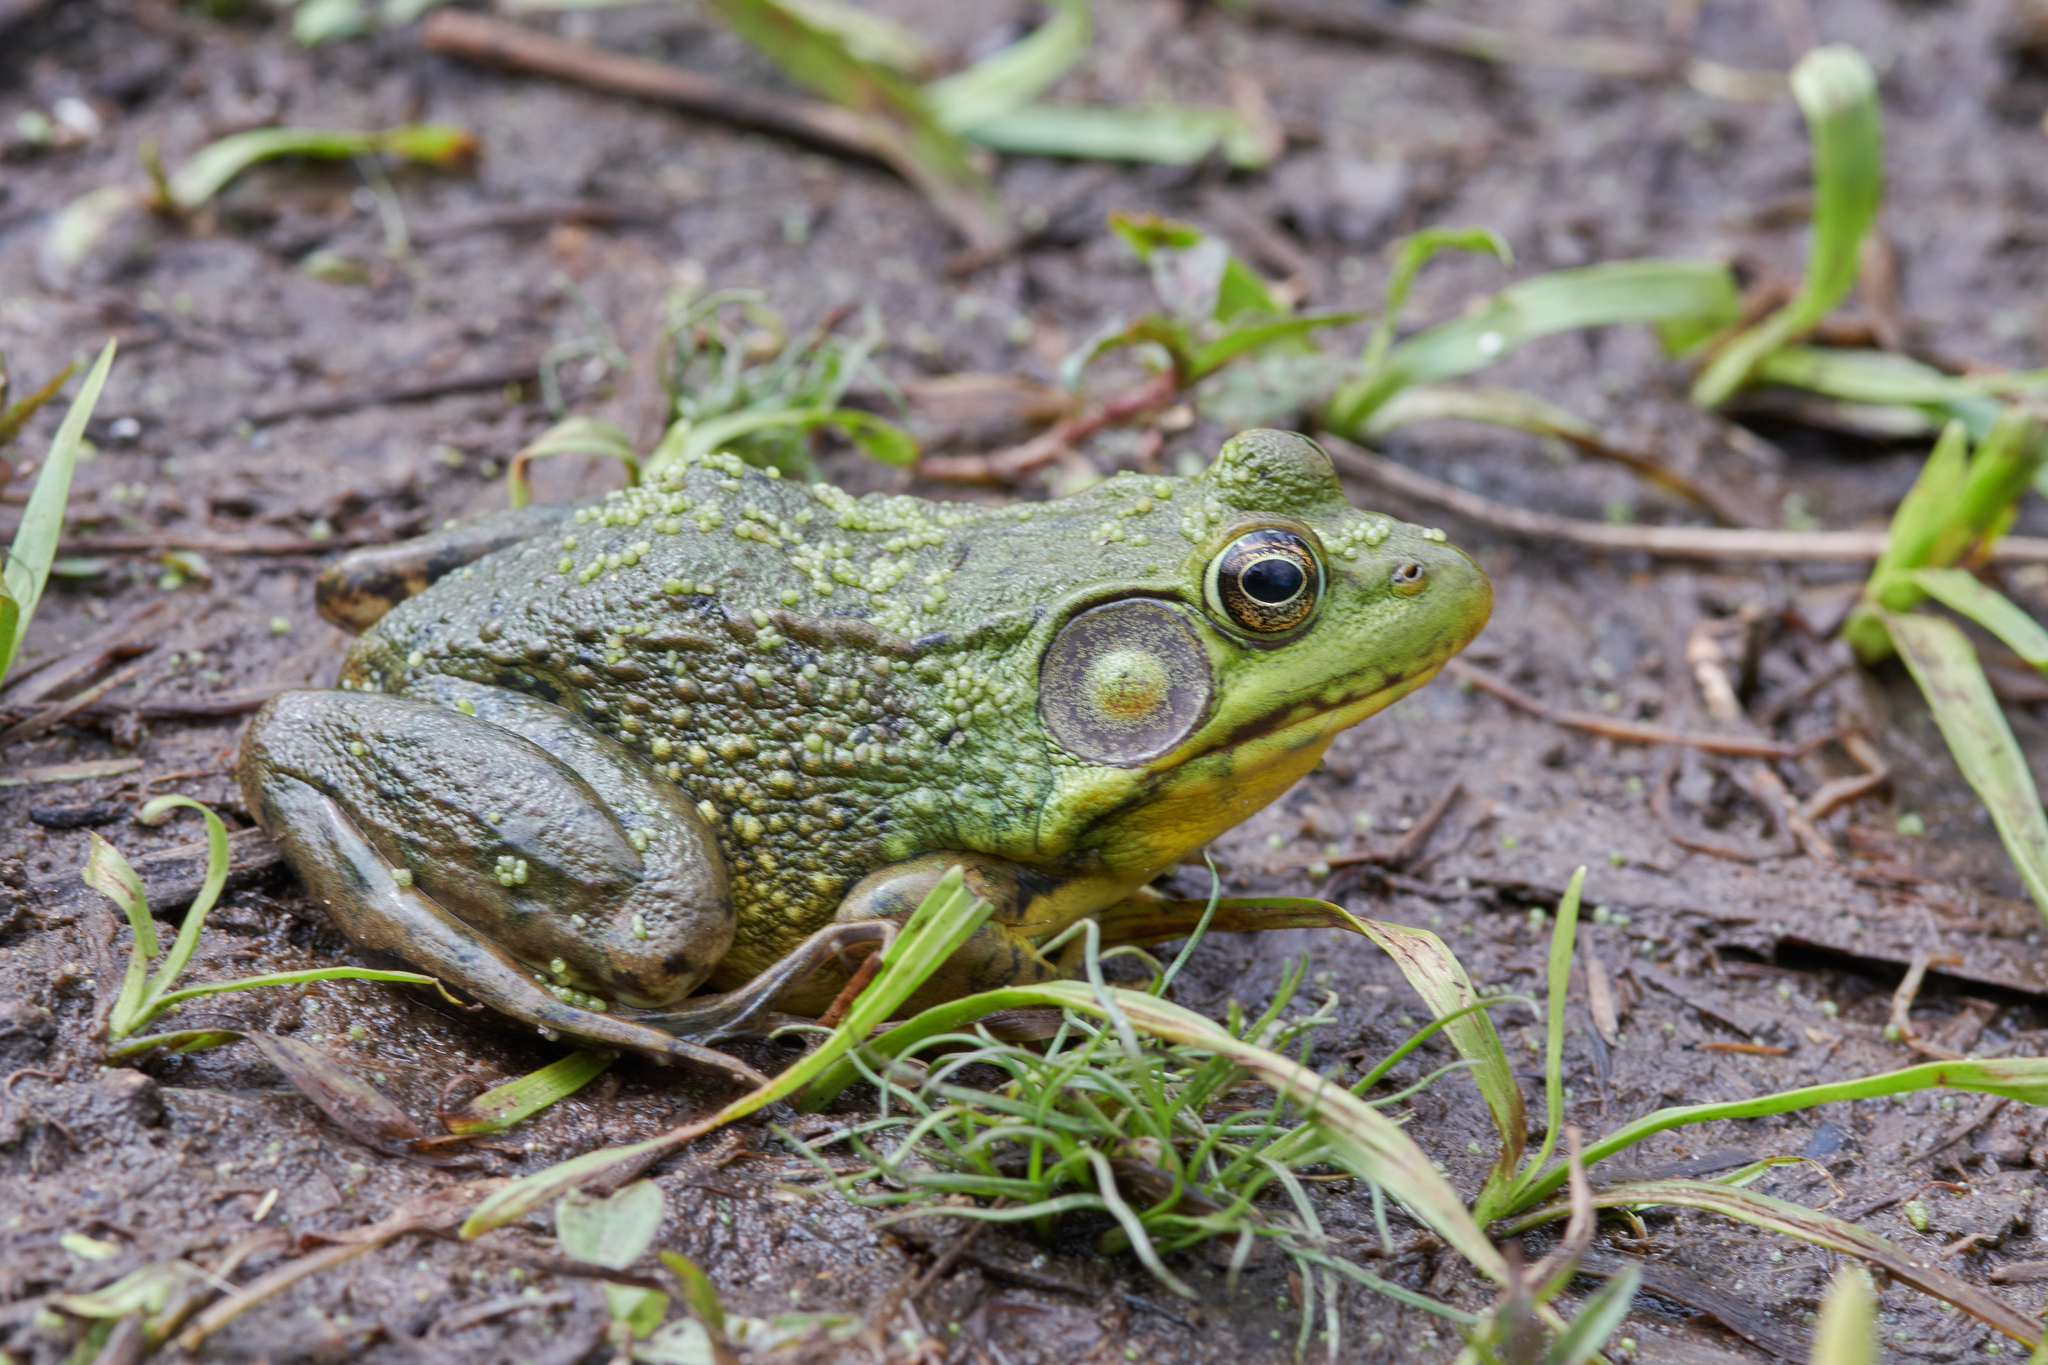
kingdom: Animalia
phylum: Chordata
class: Amphibia
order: Anura
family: Ranidae
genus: Lithobates
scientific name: Lithobates clamitans
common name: Green frog
